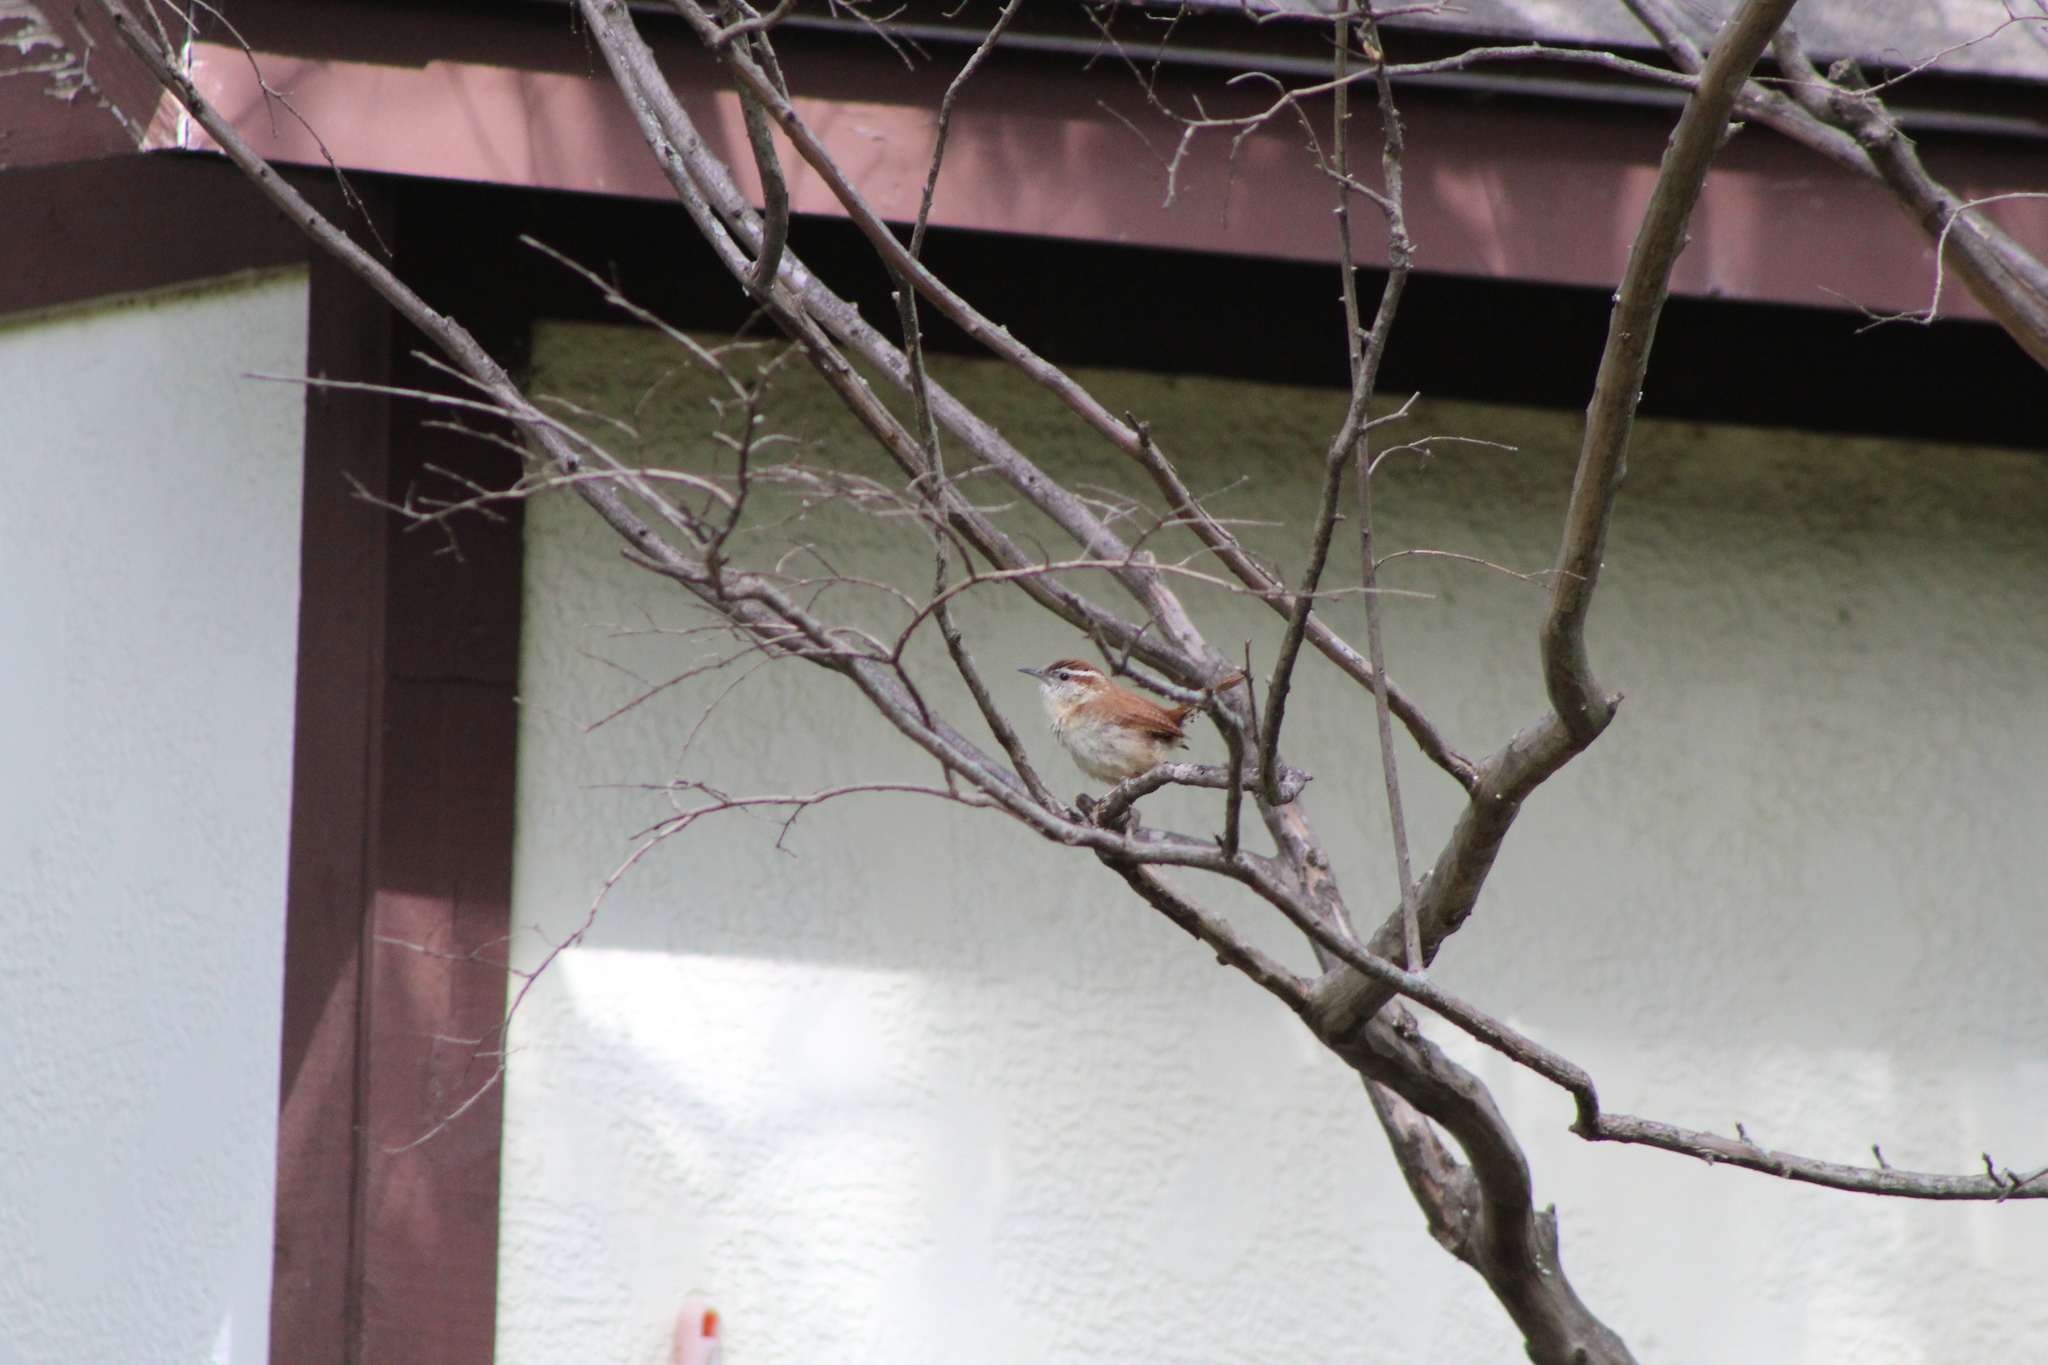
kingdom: Animalia
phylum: Chordata
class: Aves
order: Passeriformes
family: Troglodytidae
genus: Thryothorus
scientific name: Thryothorus ludovicianus
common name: Carolina wren
